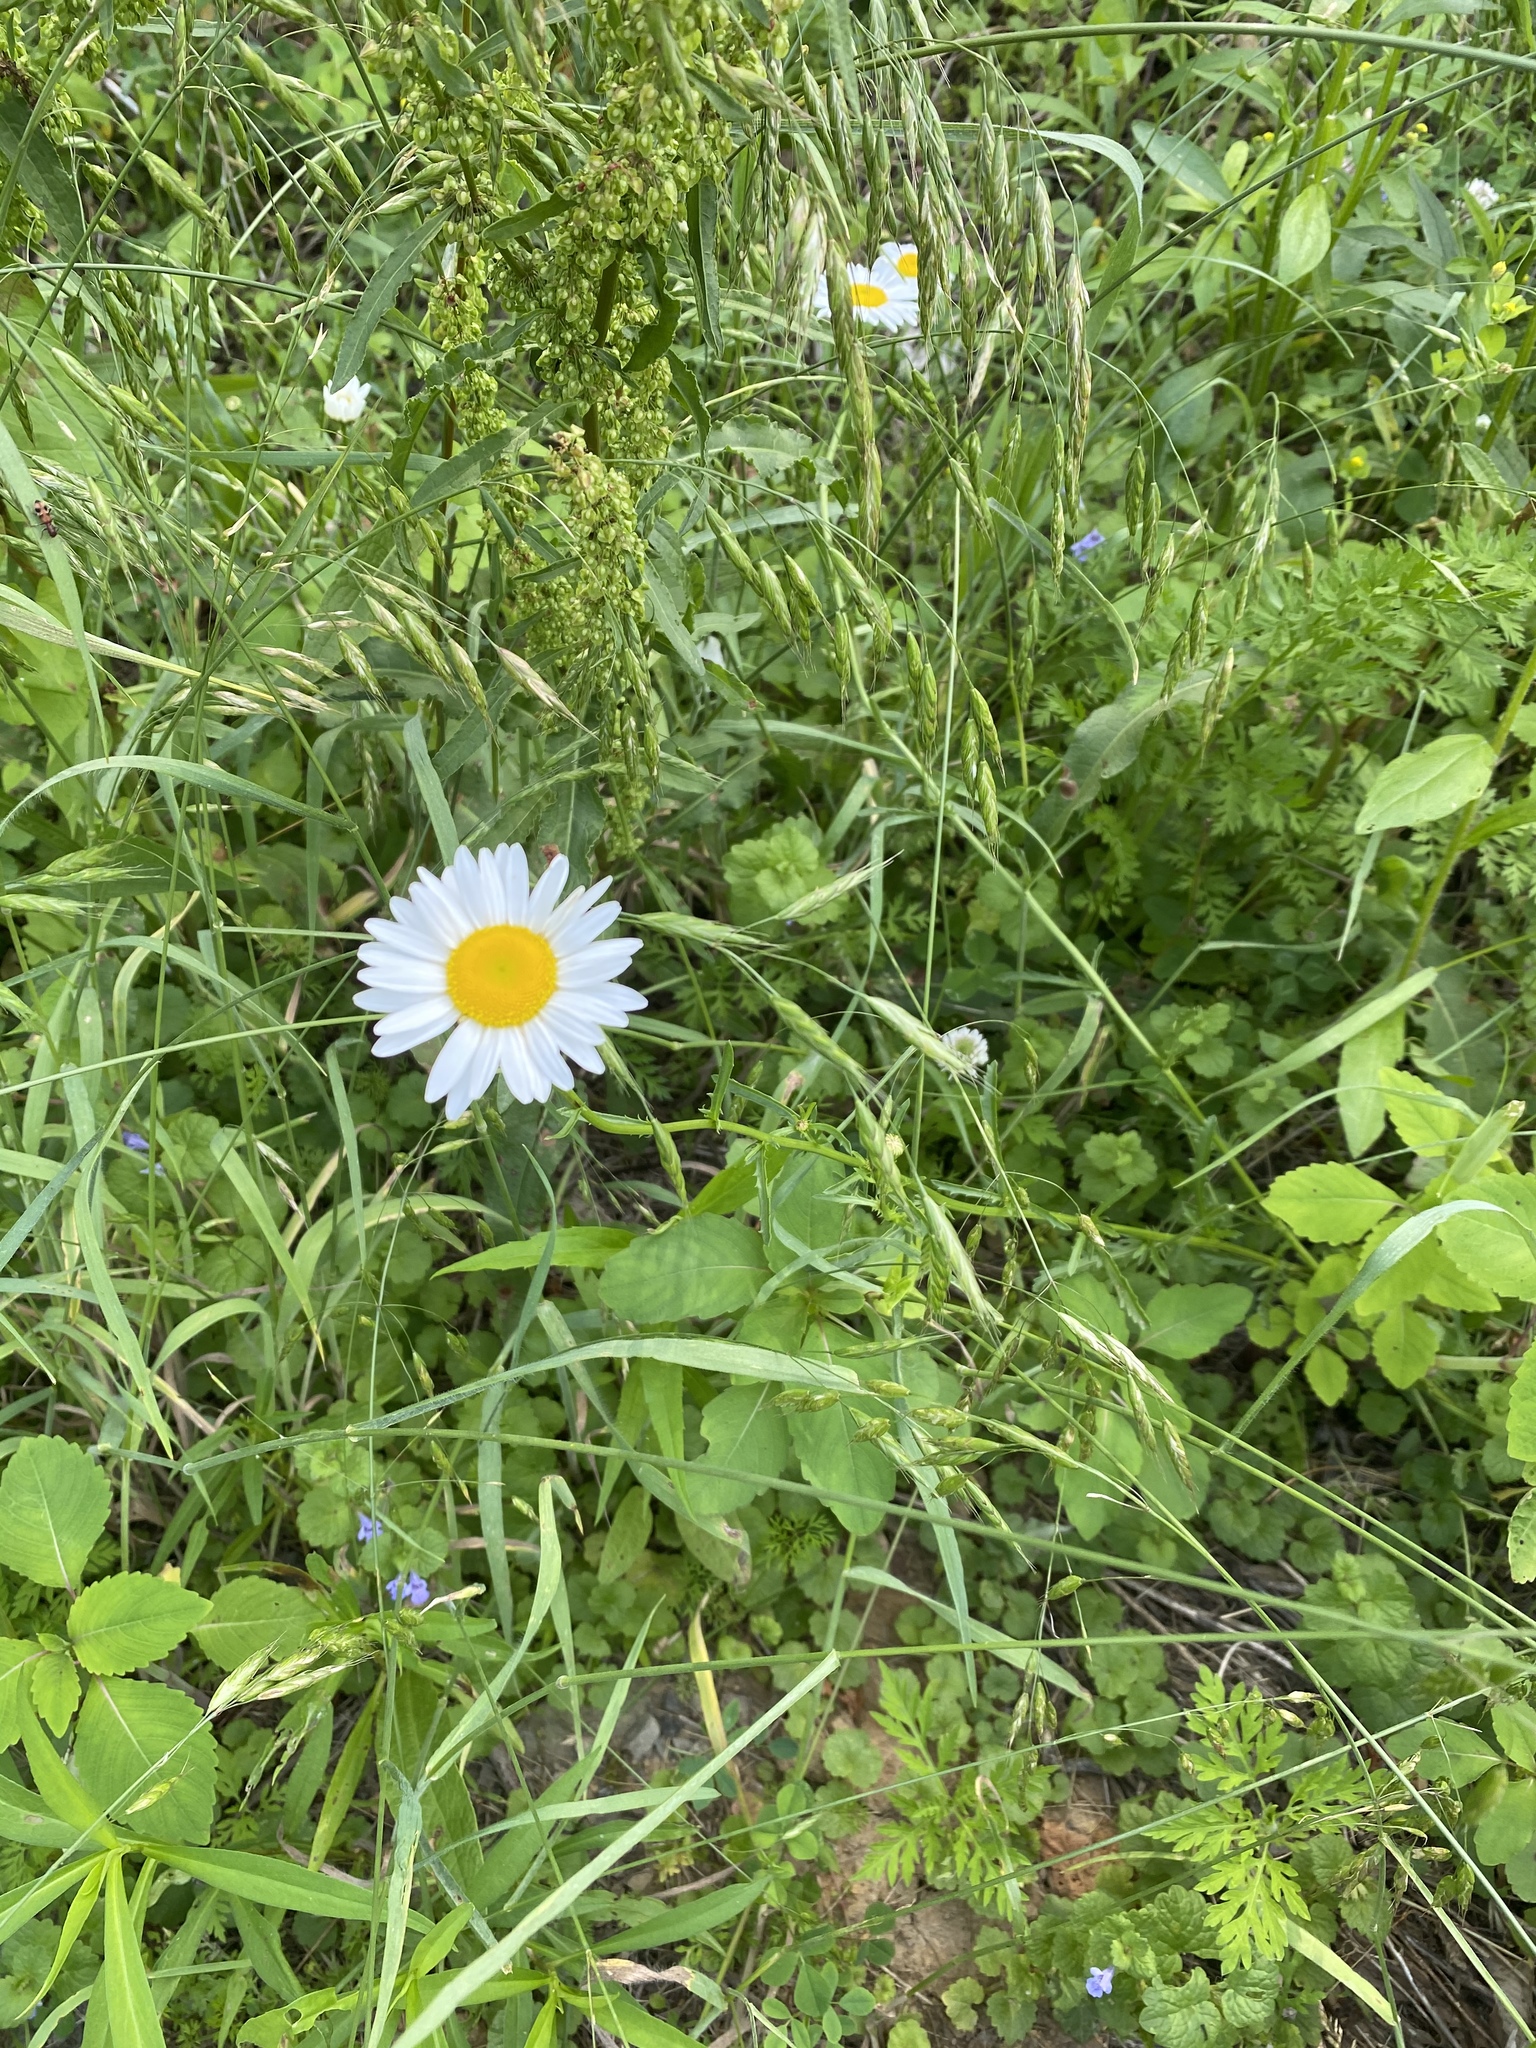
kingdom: Plantae
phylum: Tracheophyta
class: Magnoliopsida
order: Asterales
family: Asteraceae
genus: Leucanthemum
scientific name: Leucanthemum vulgare
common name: Oxeye daisy
